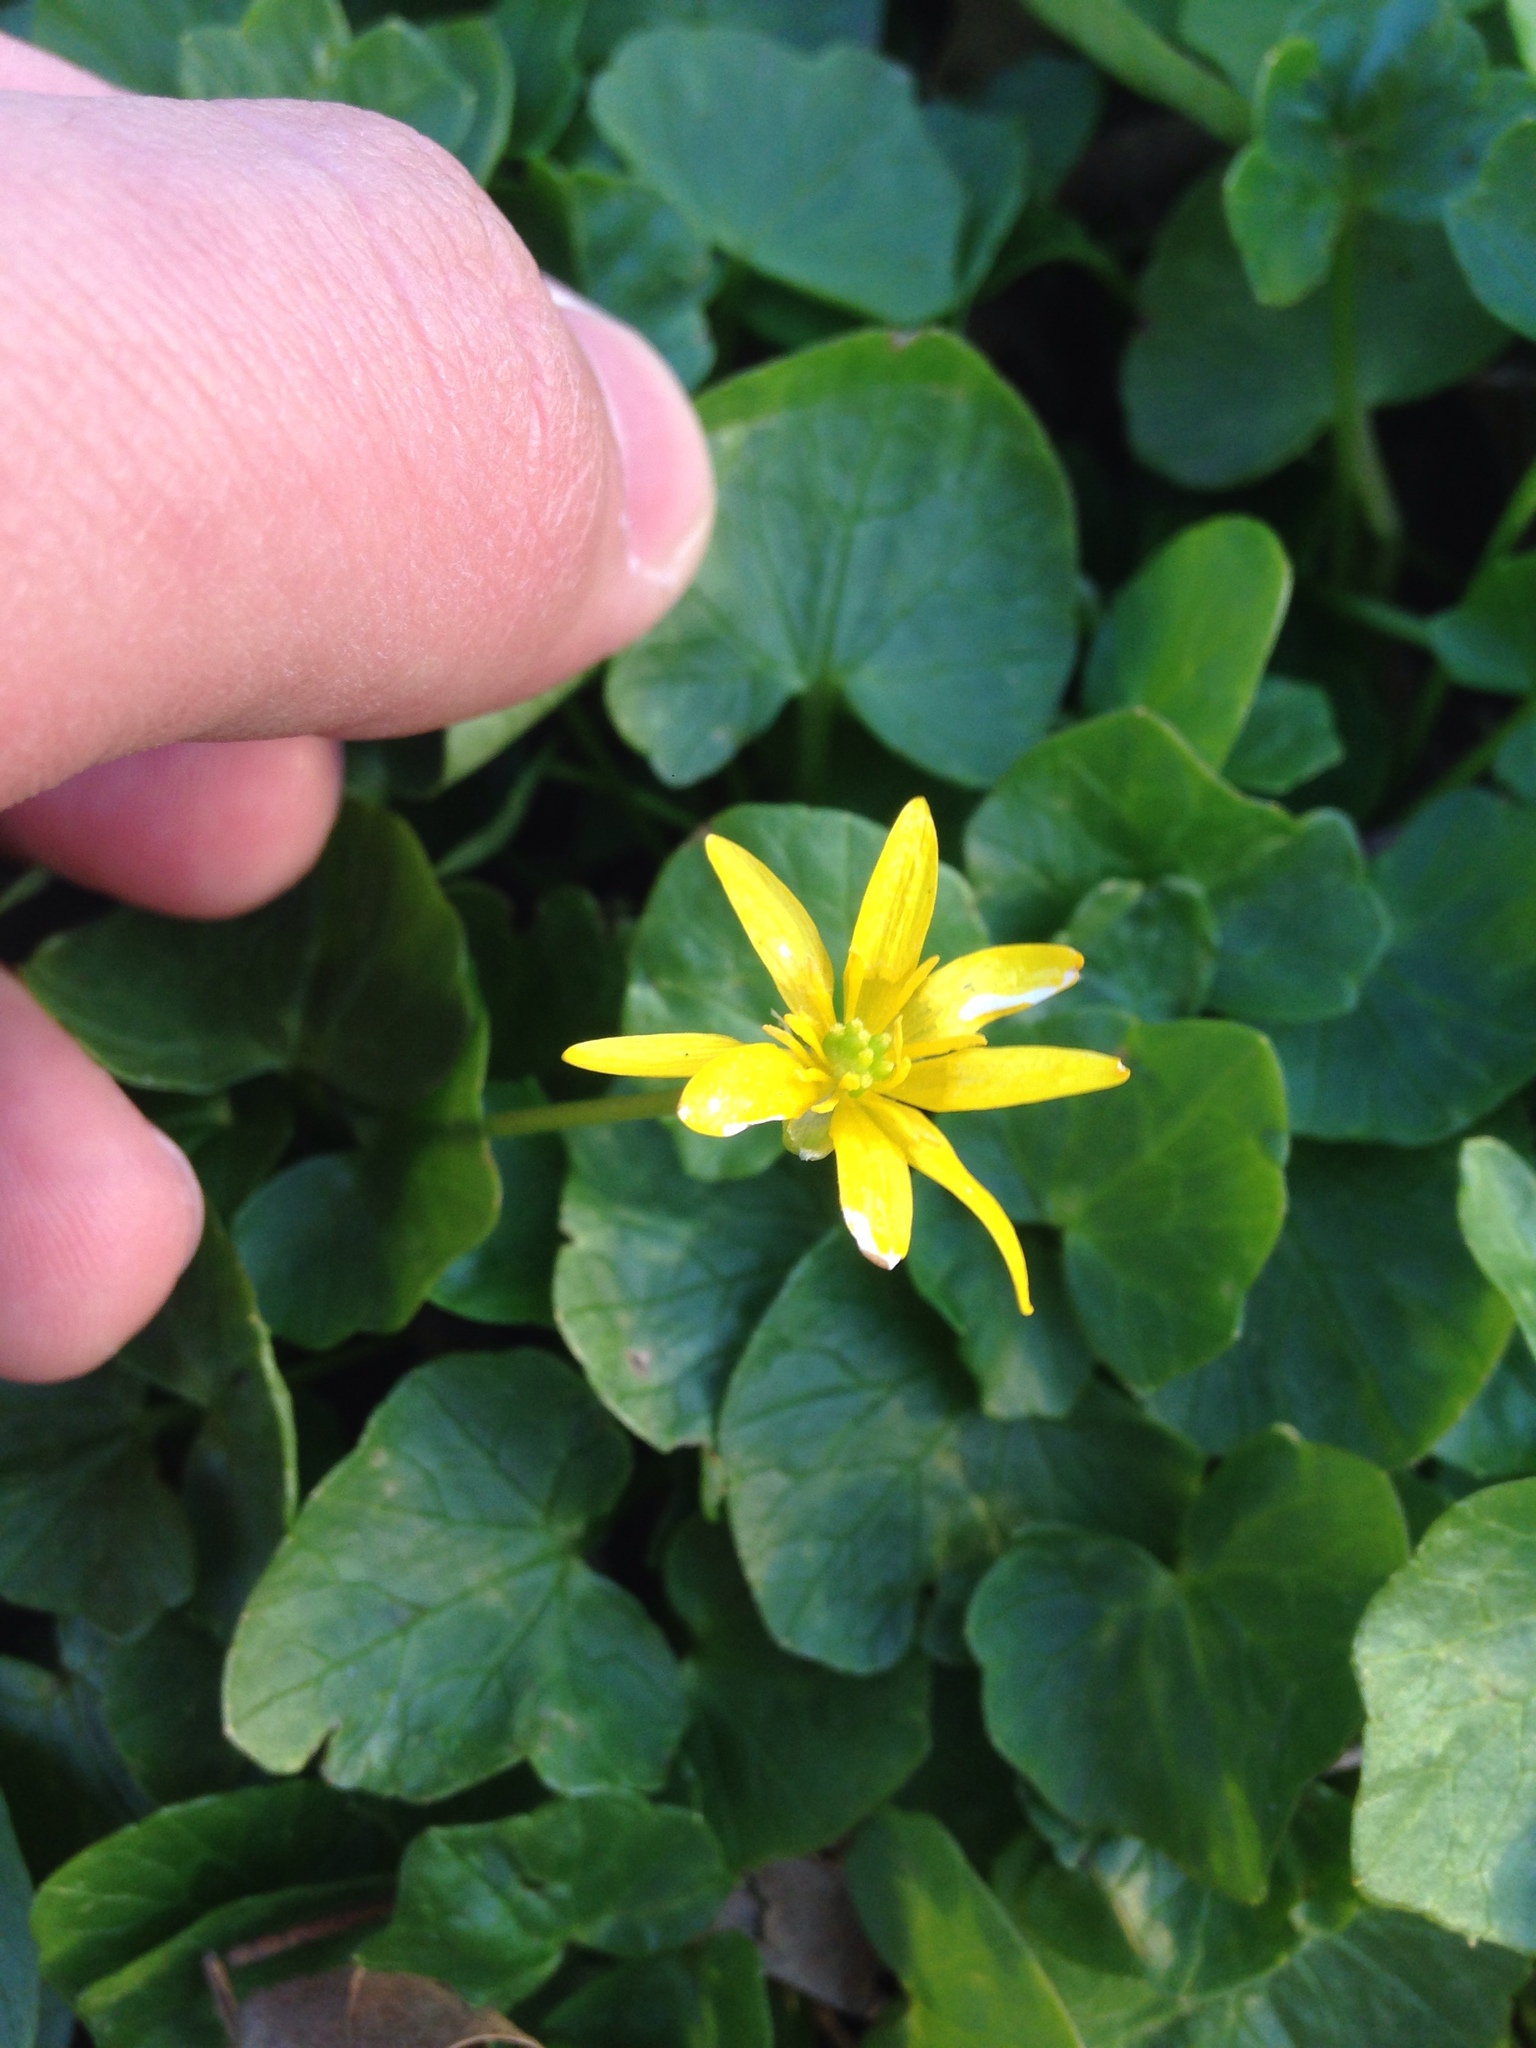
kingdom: Plantae
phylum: Tracheophyta
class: Magnoliopsida
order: Ranunculales
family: Ranunculaceae
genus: Ficaria
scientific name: Ficaria verna
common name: Lesser celandine
